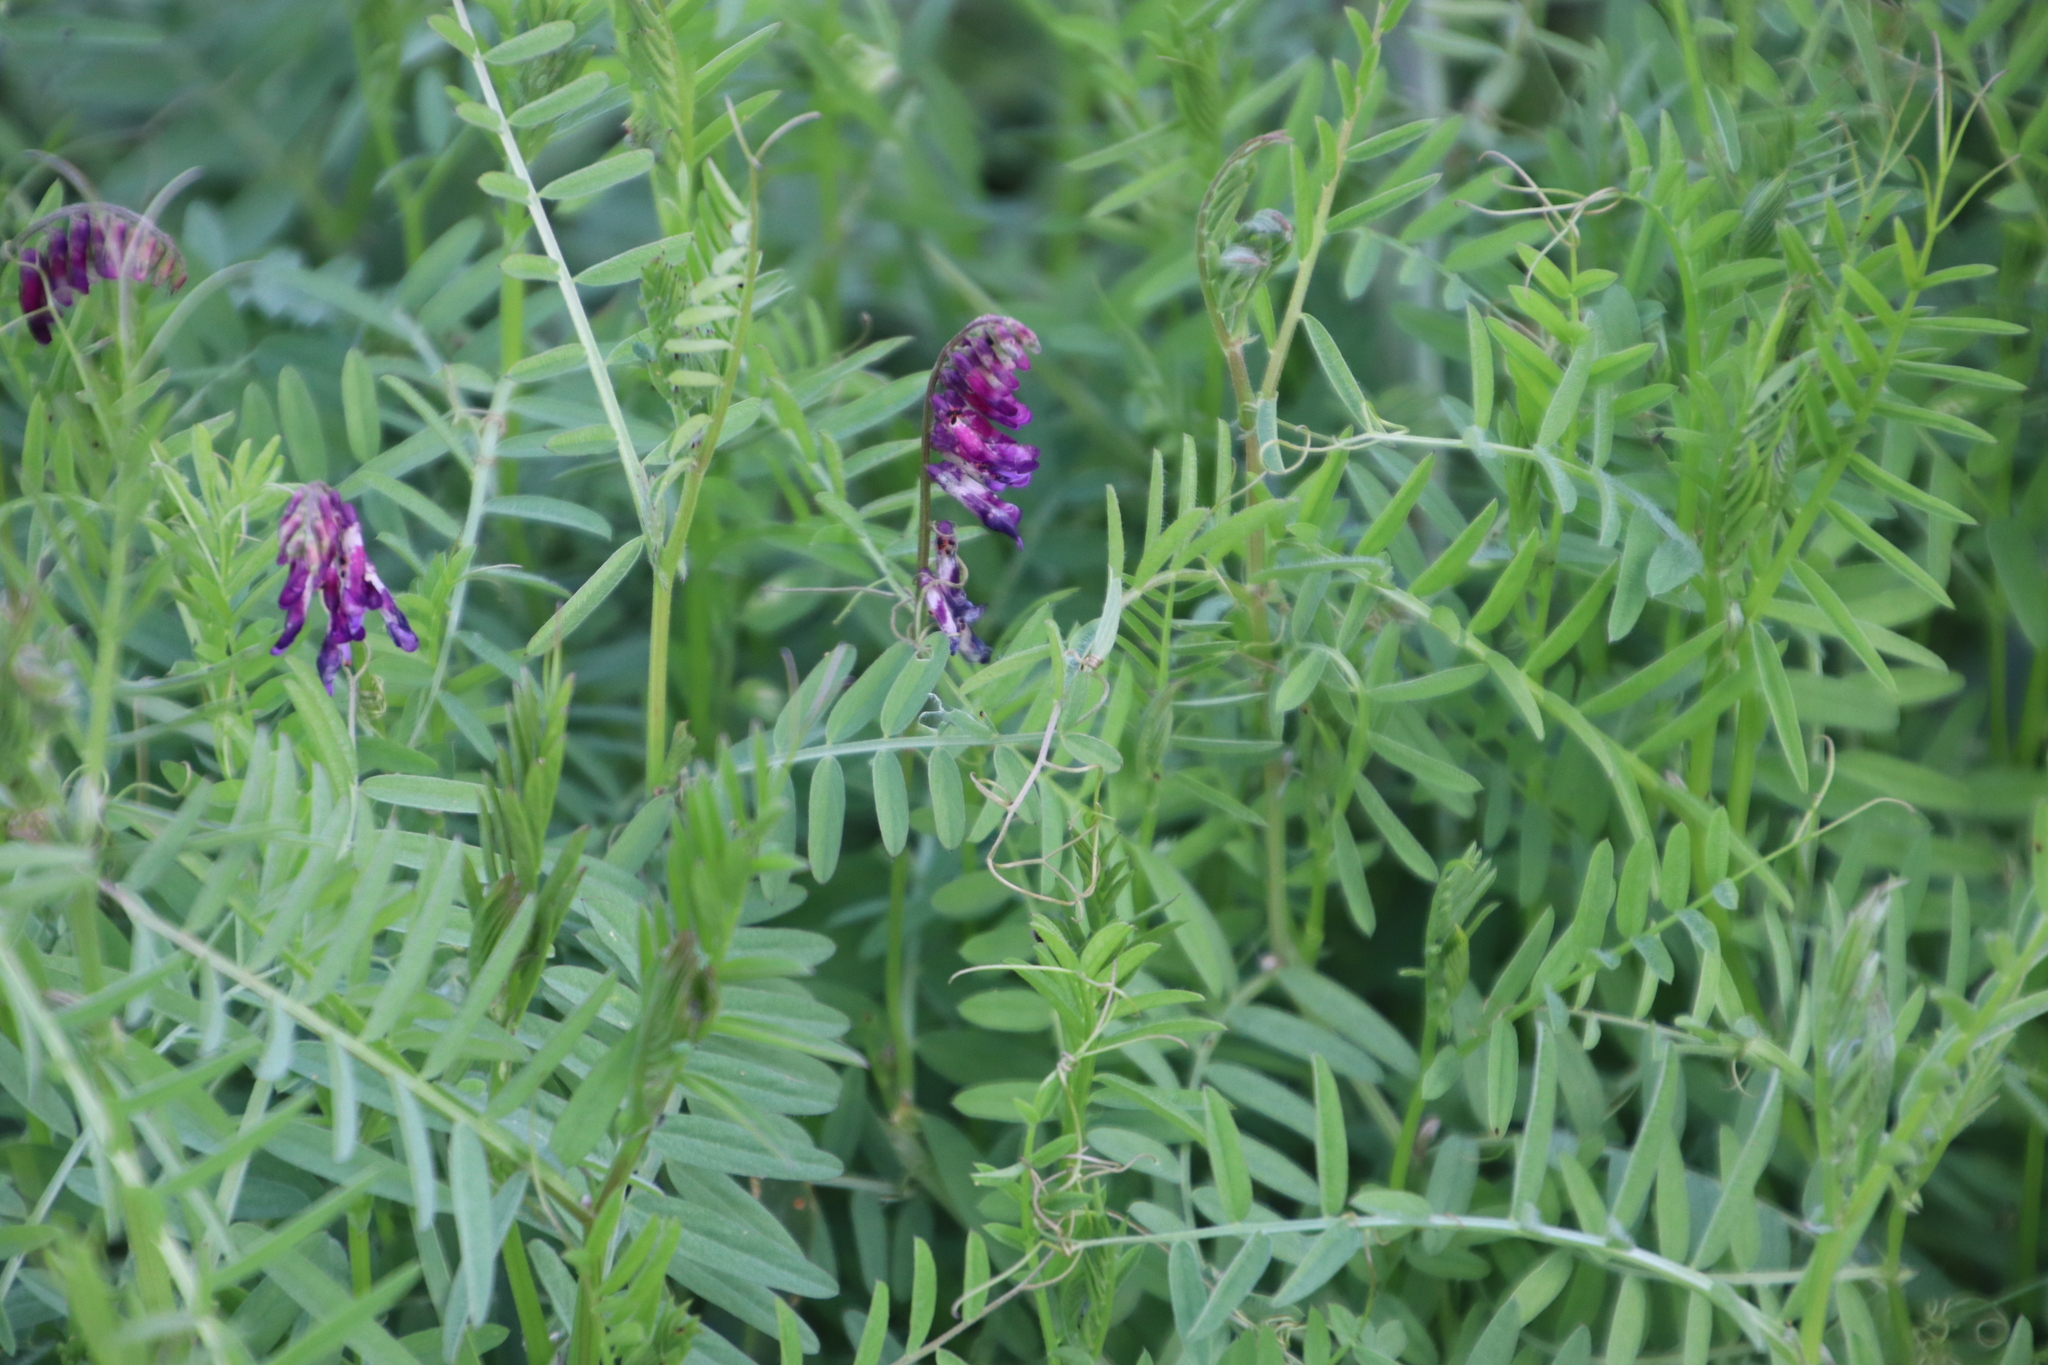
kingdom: Plantae
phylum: Tracheophyta
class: Magnoliopsida
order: Fabales
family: Fabaceae
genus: Vicia
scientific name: Vicia eriocarpa
